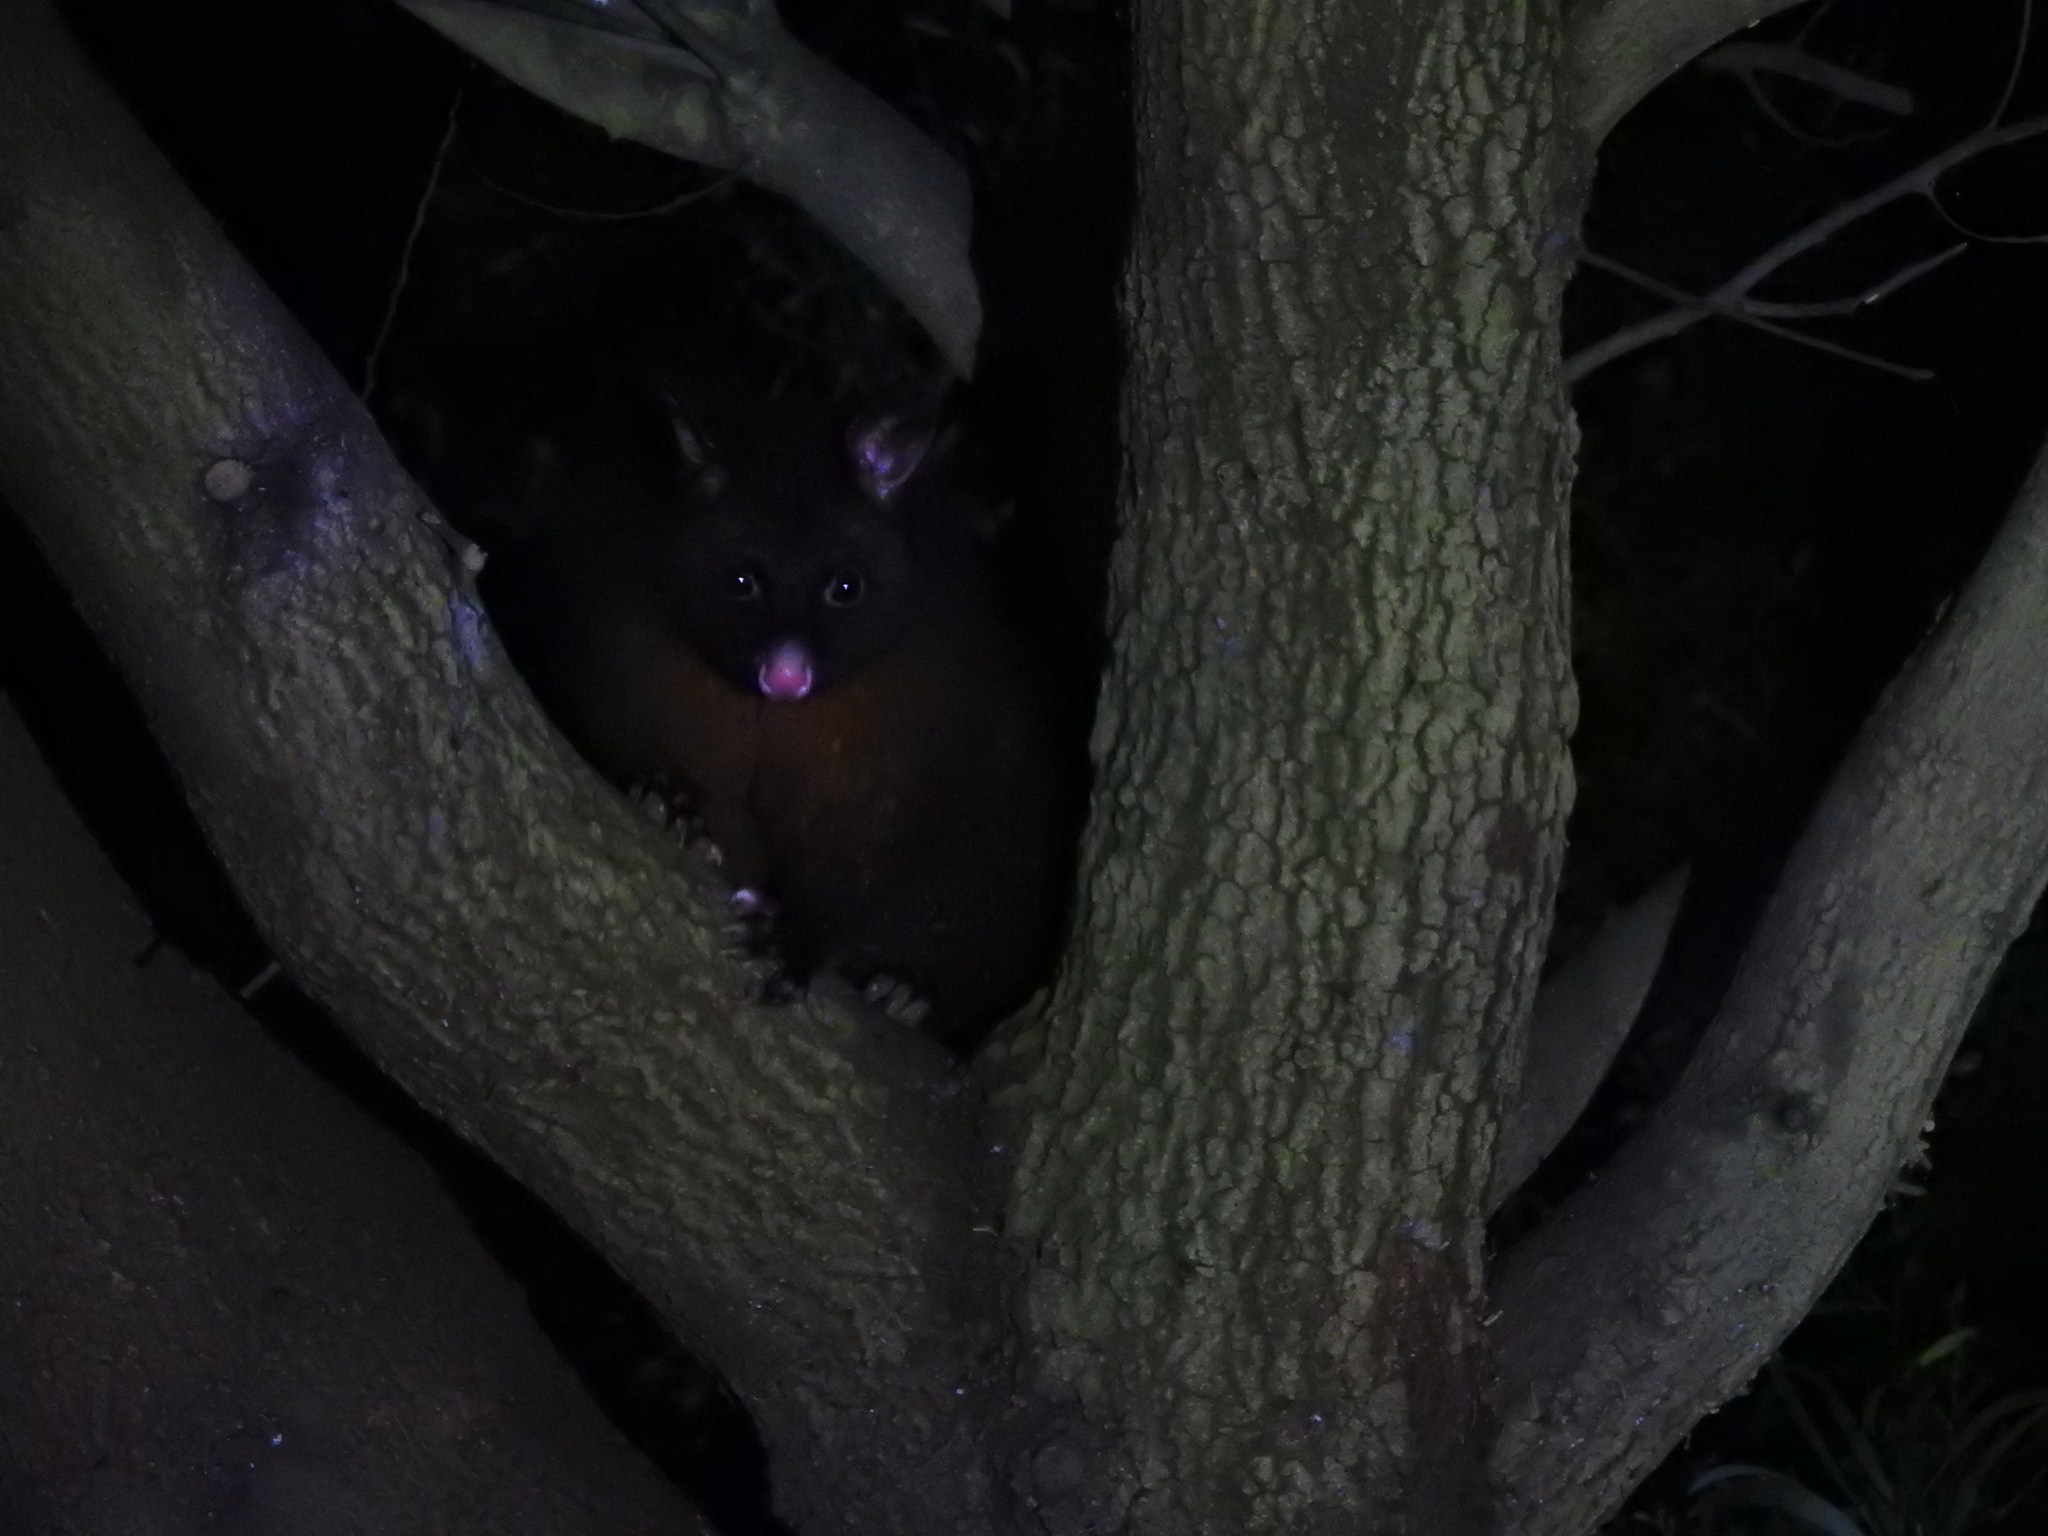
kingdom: Animalia
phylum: Chordata
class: Mammalia
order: Diprotodontia
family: Phalangeridae
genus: Trichosurus
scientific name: Trichosurus vulpecula
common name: Common brushtail
